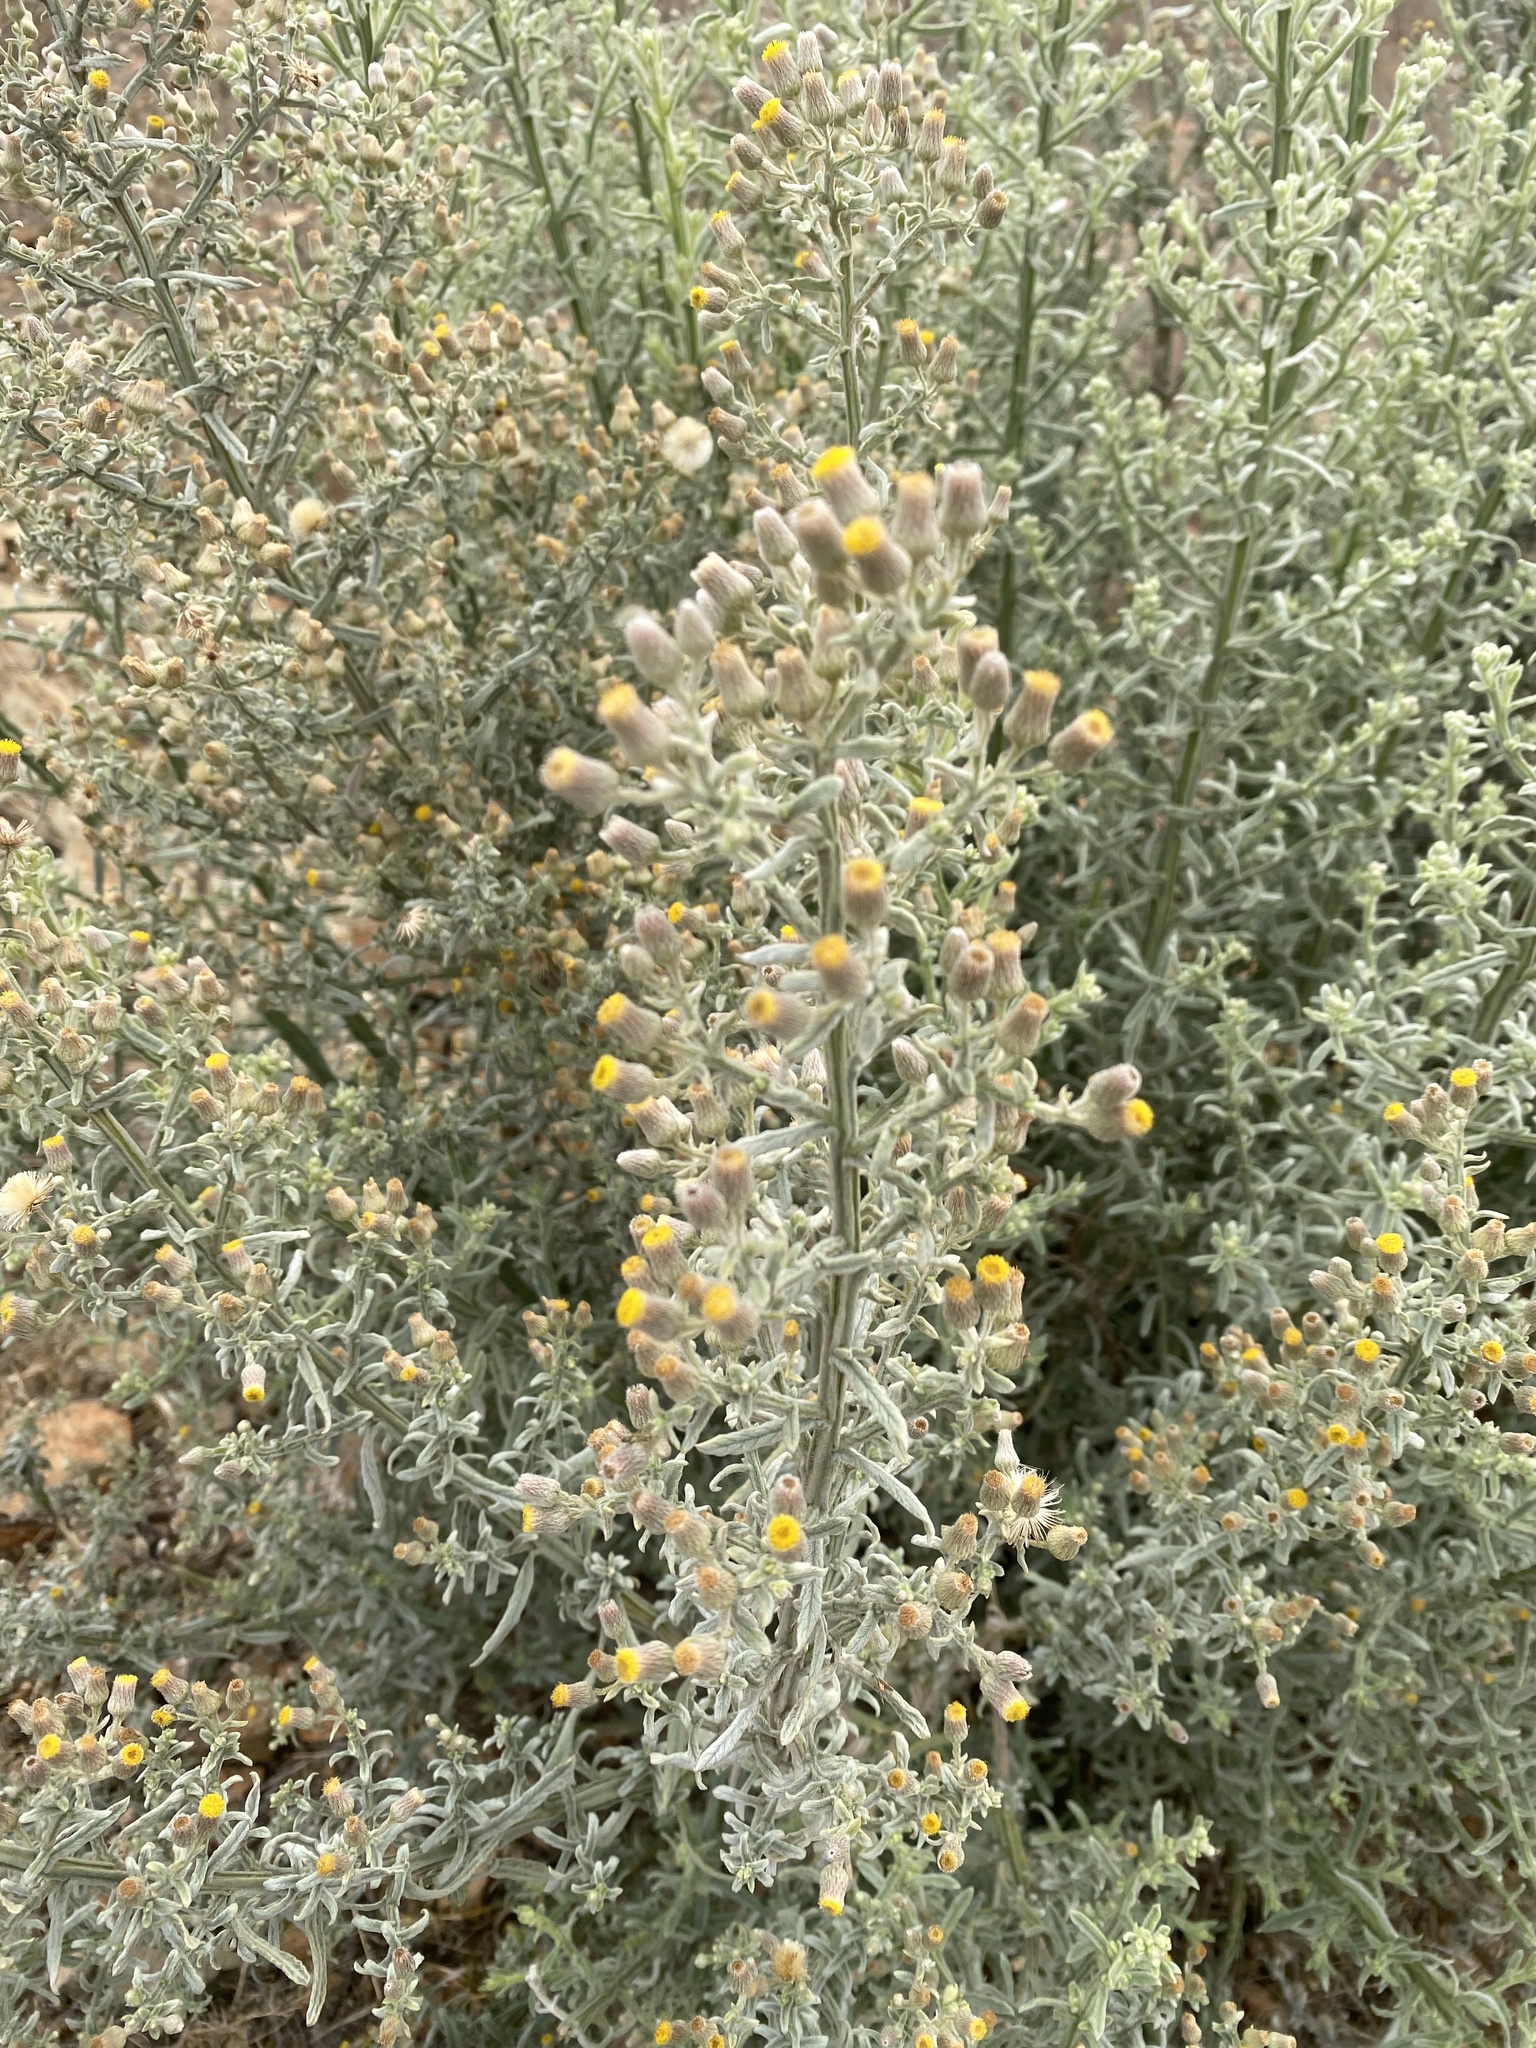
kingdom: Plantae
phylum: Tracheophyta
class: Magnoliopsida
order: Asterales
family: Asteraceae
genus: Galgera
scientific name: Galgera decurrens
